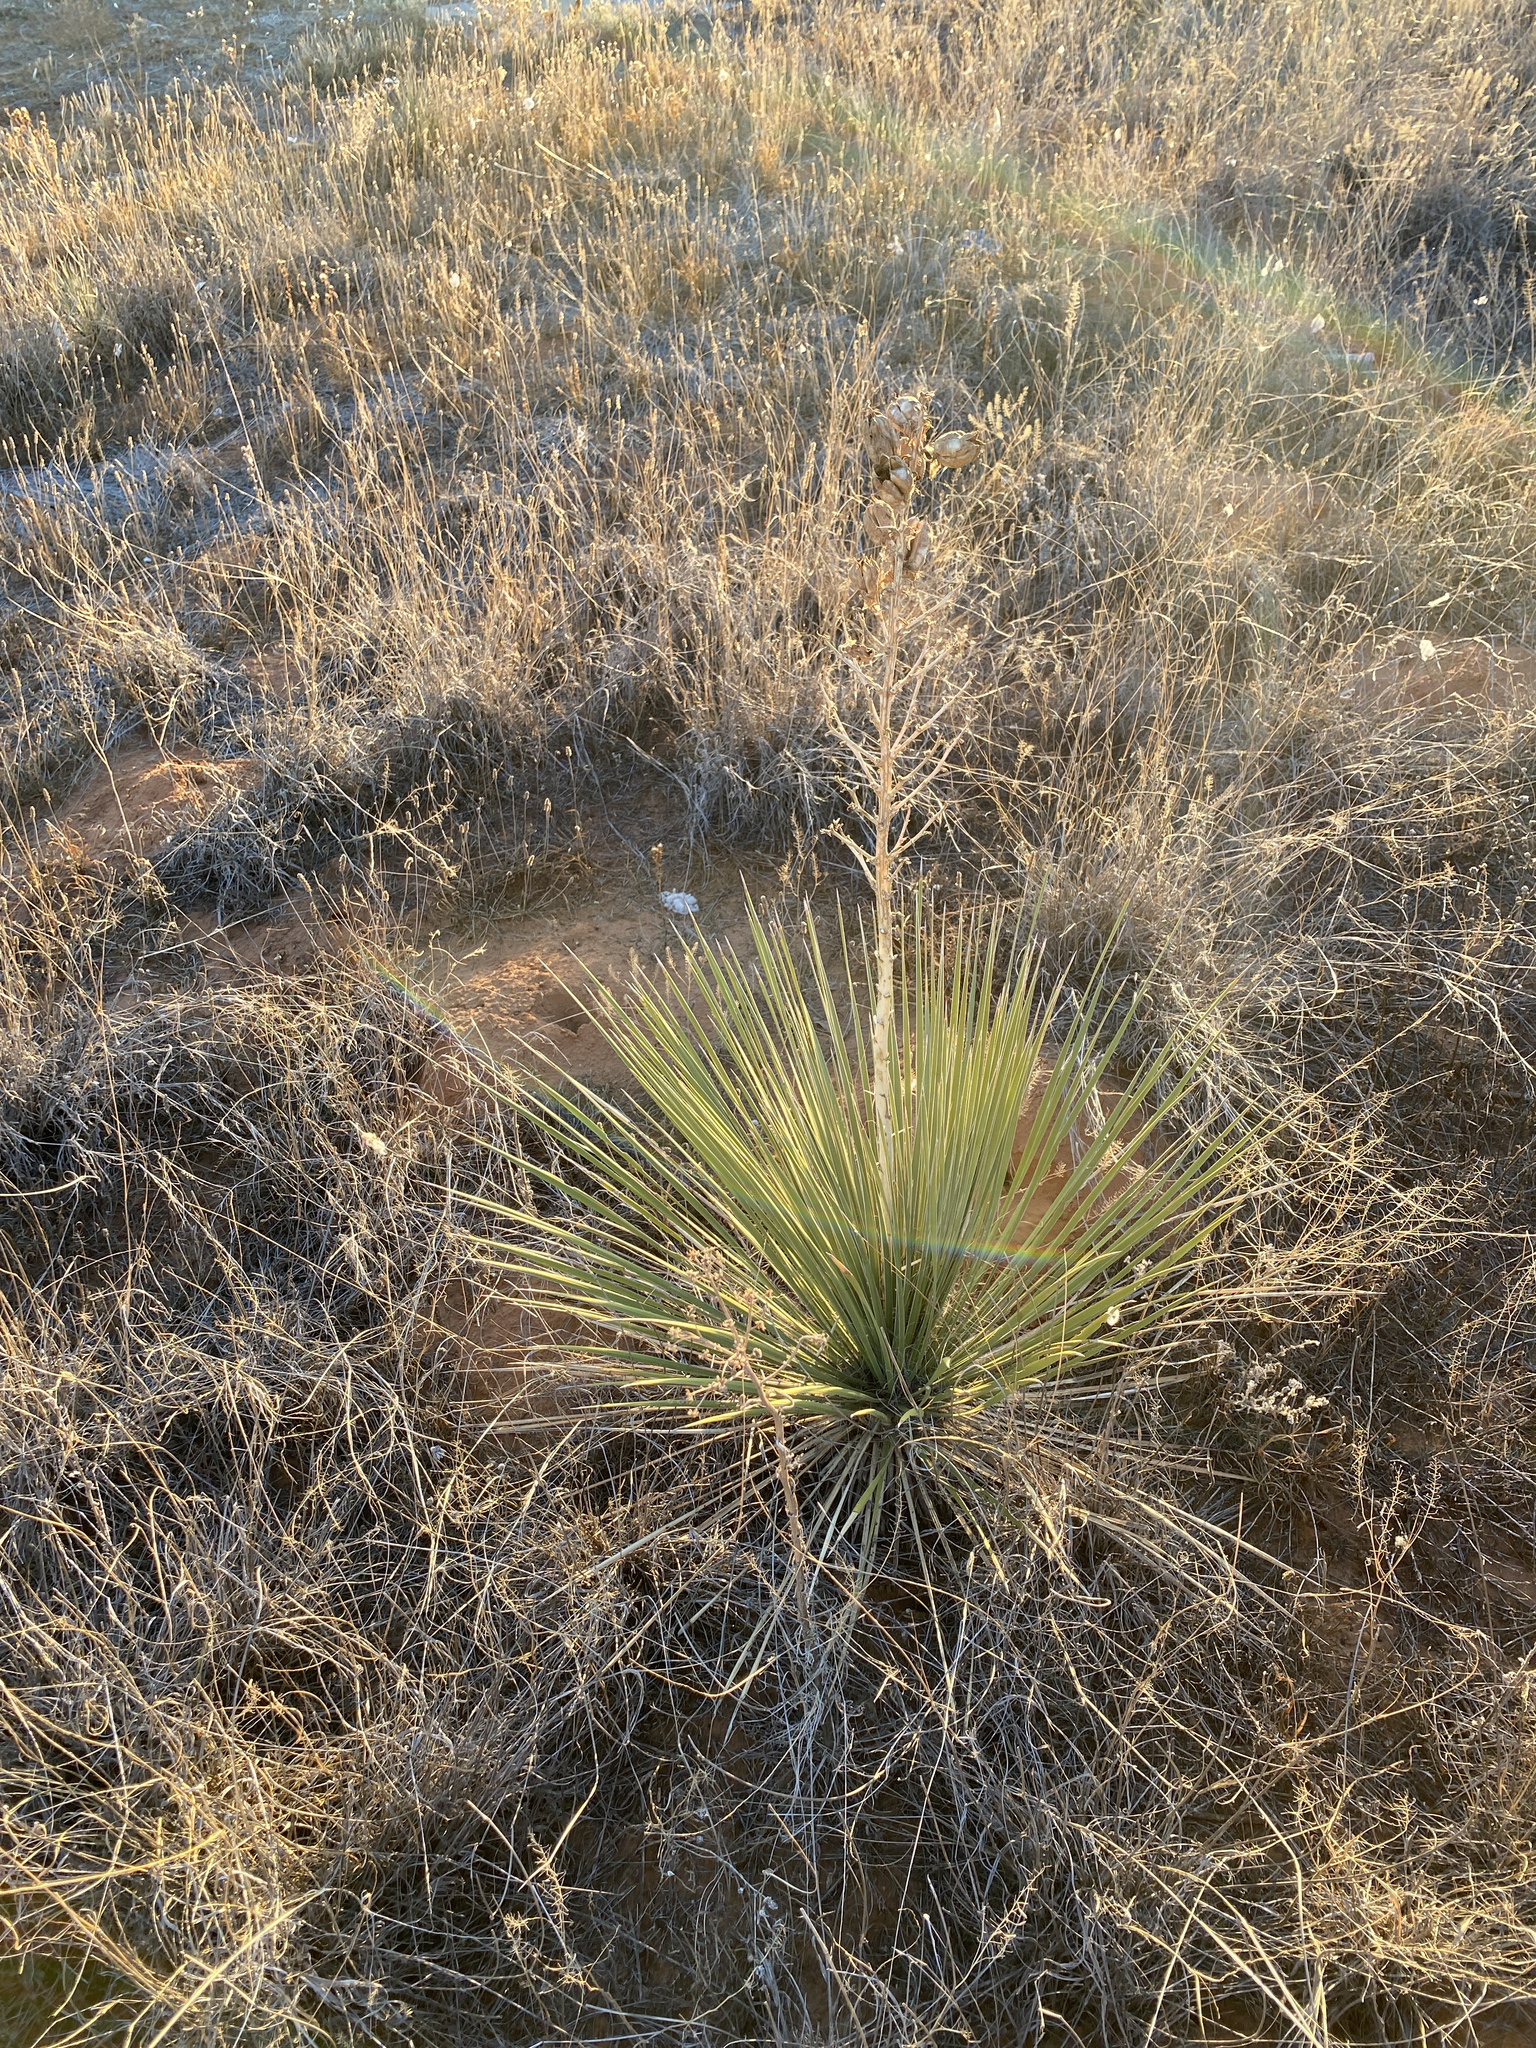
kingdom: Plantae
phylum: Tracheophyta
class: Liliopsida
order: Asparagales
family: Asparagaceae
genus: Yucca
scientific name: Yucca campestris
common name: Plains yucca
